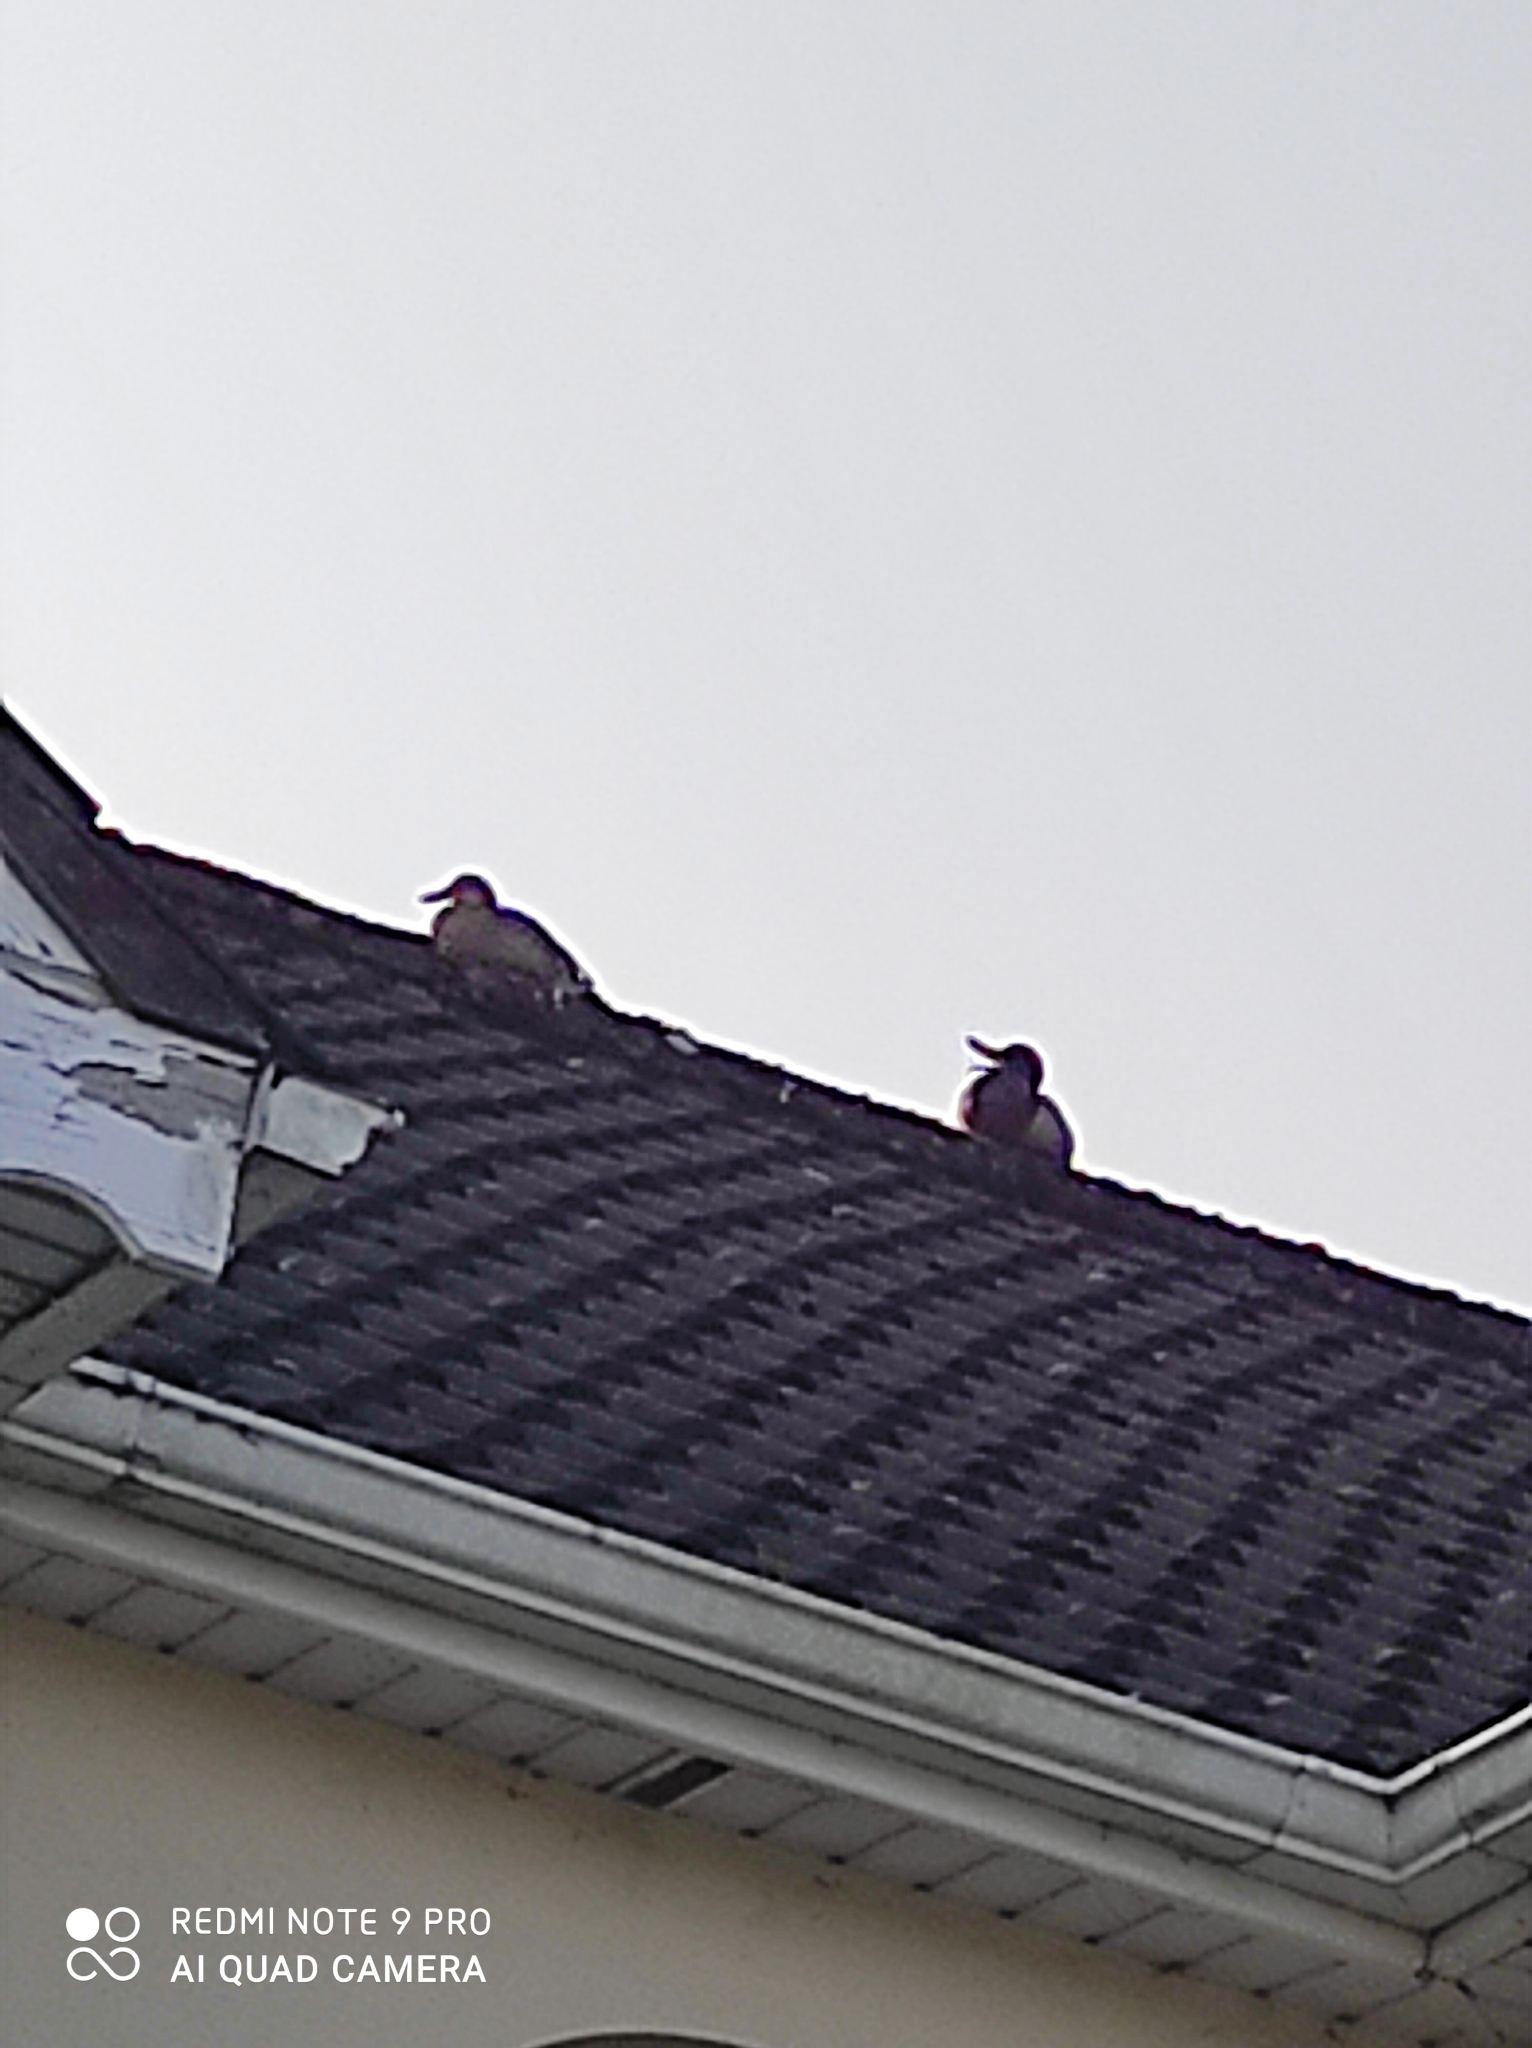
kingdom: Animalia
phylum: Chordata
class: Aves
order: Anseriformes
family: Anatidae
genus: Anas
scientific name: Anas platyrhynchos
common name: Mallard
